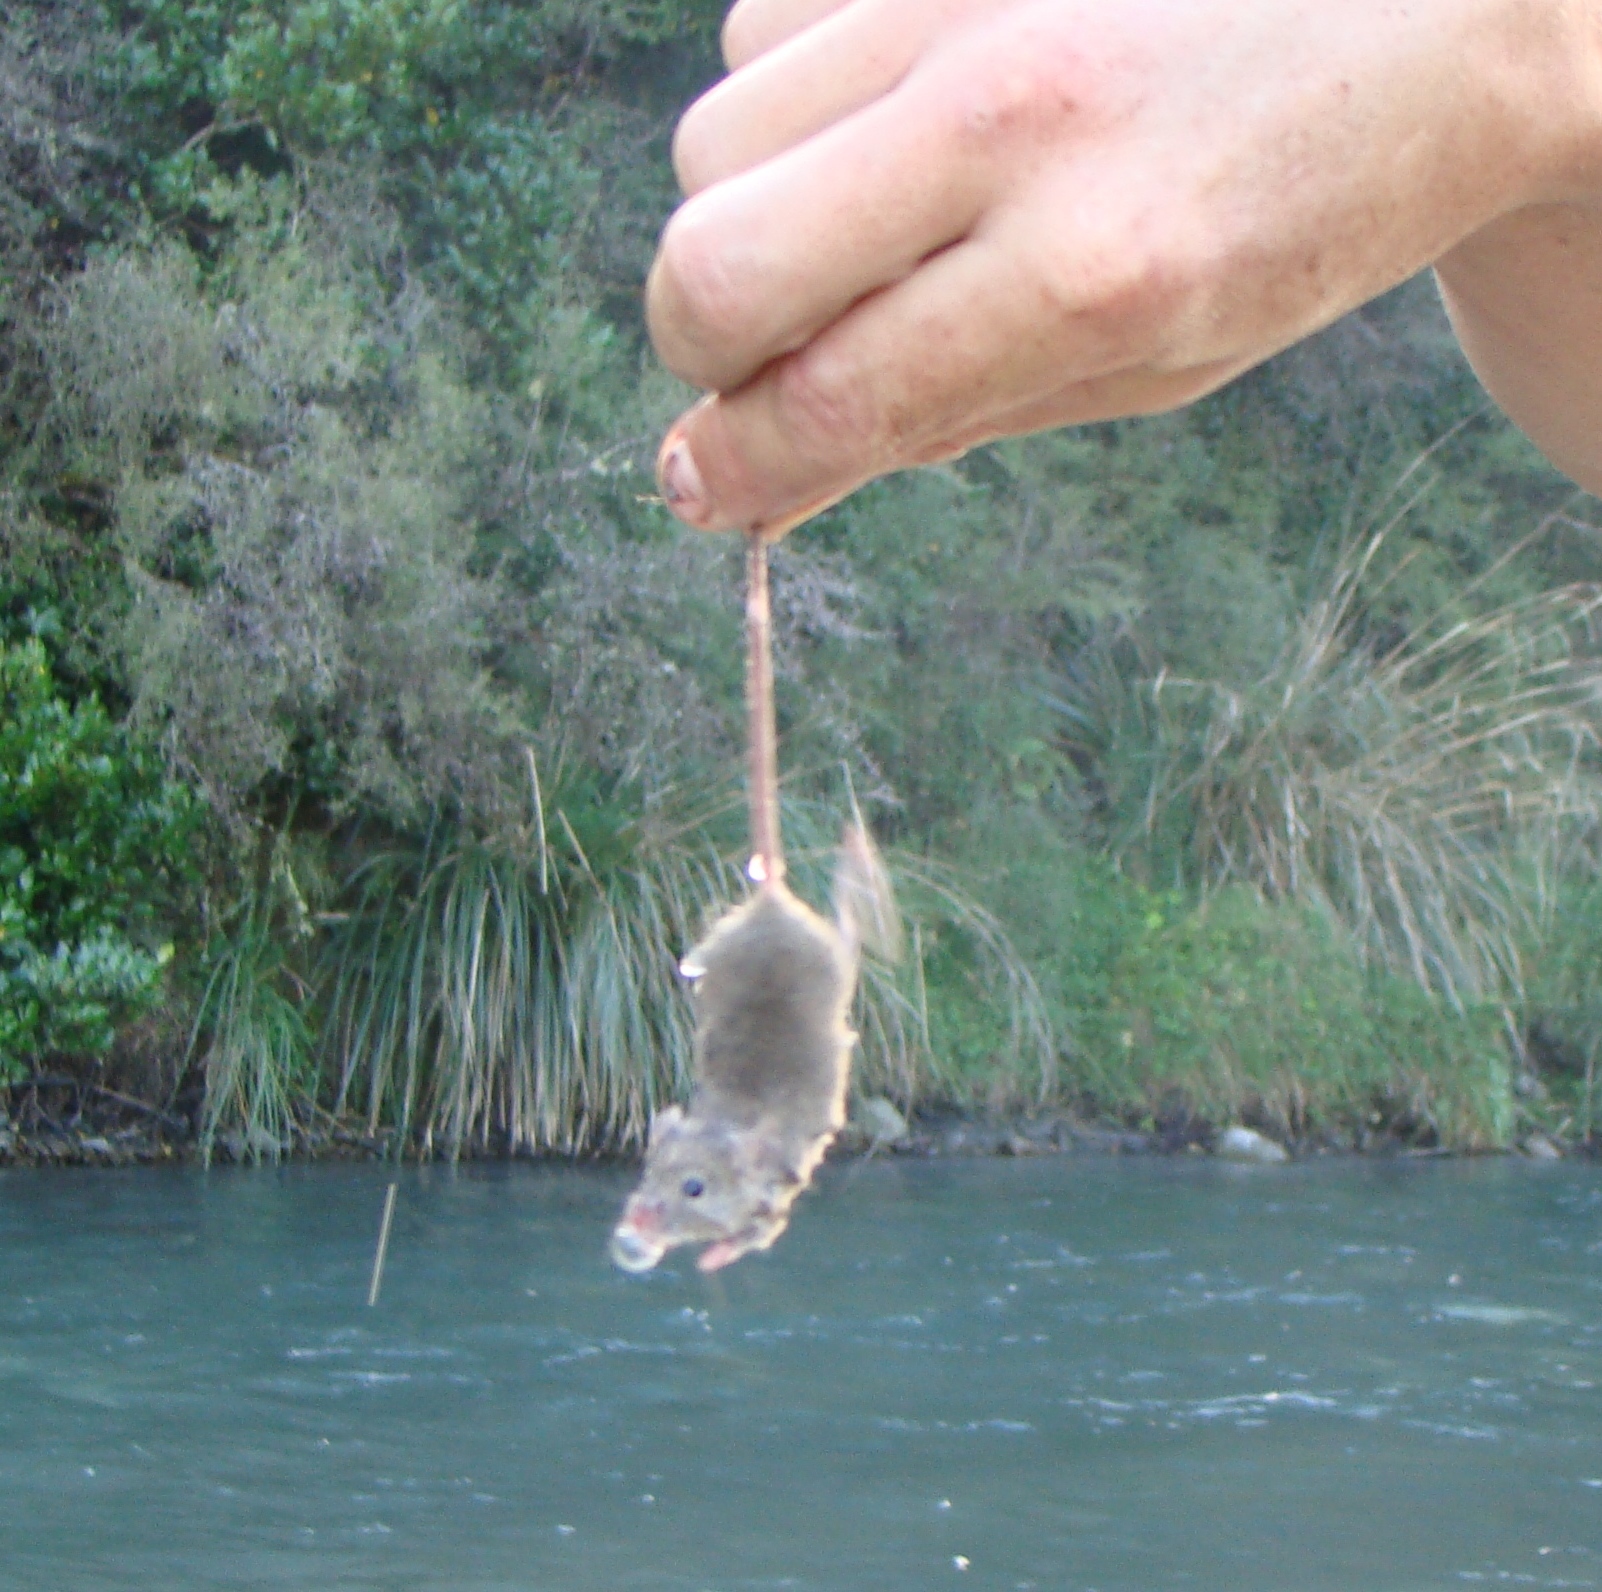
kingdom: Animalia
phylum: Chordata
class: Mammalia
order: Rodentia
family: Muridae
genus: Mus
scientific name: Mus musculus
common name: House mouse
